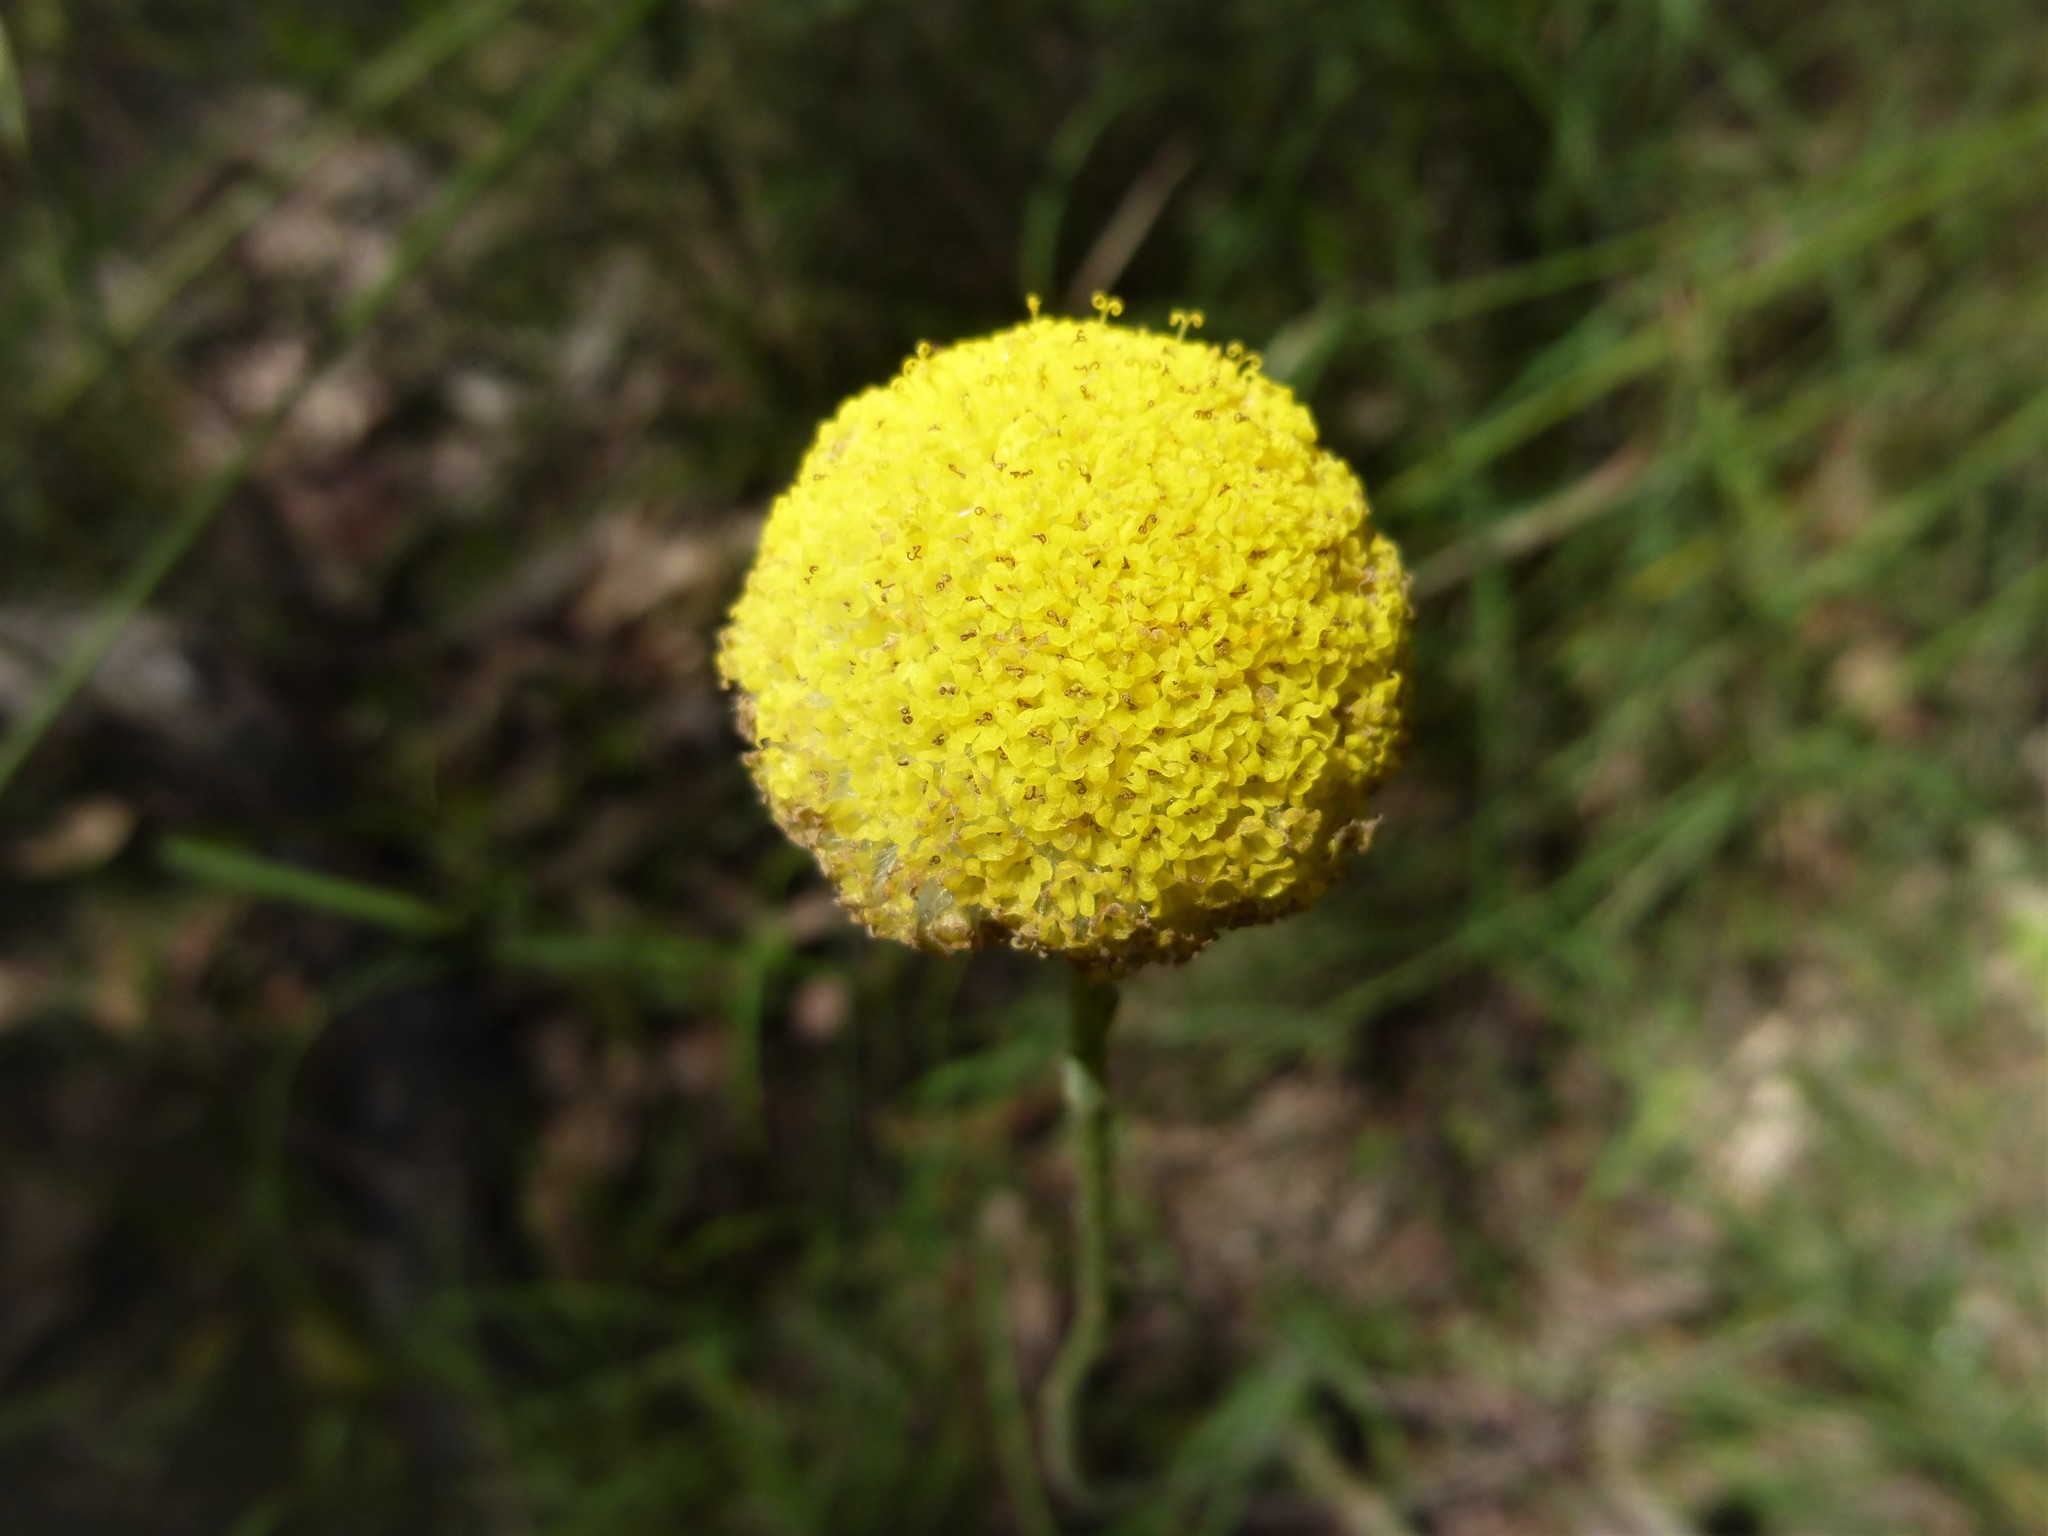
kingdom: Plantae
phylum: Tracheophyta
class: Magnoliopsida
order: Asterales
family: Asteraceae
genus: Craspedia
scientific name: Craspedia variabilis
